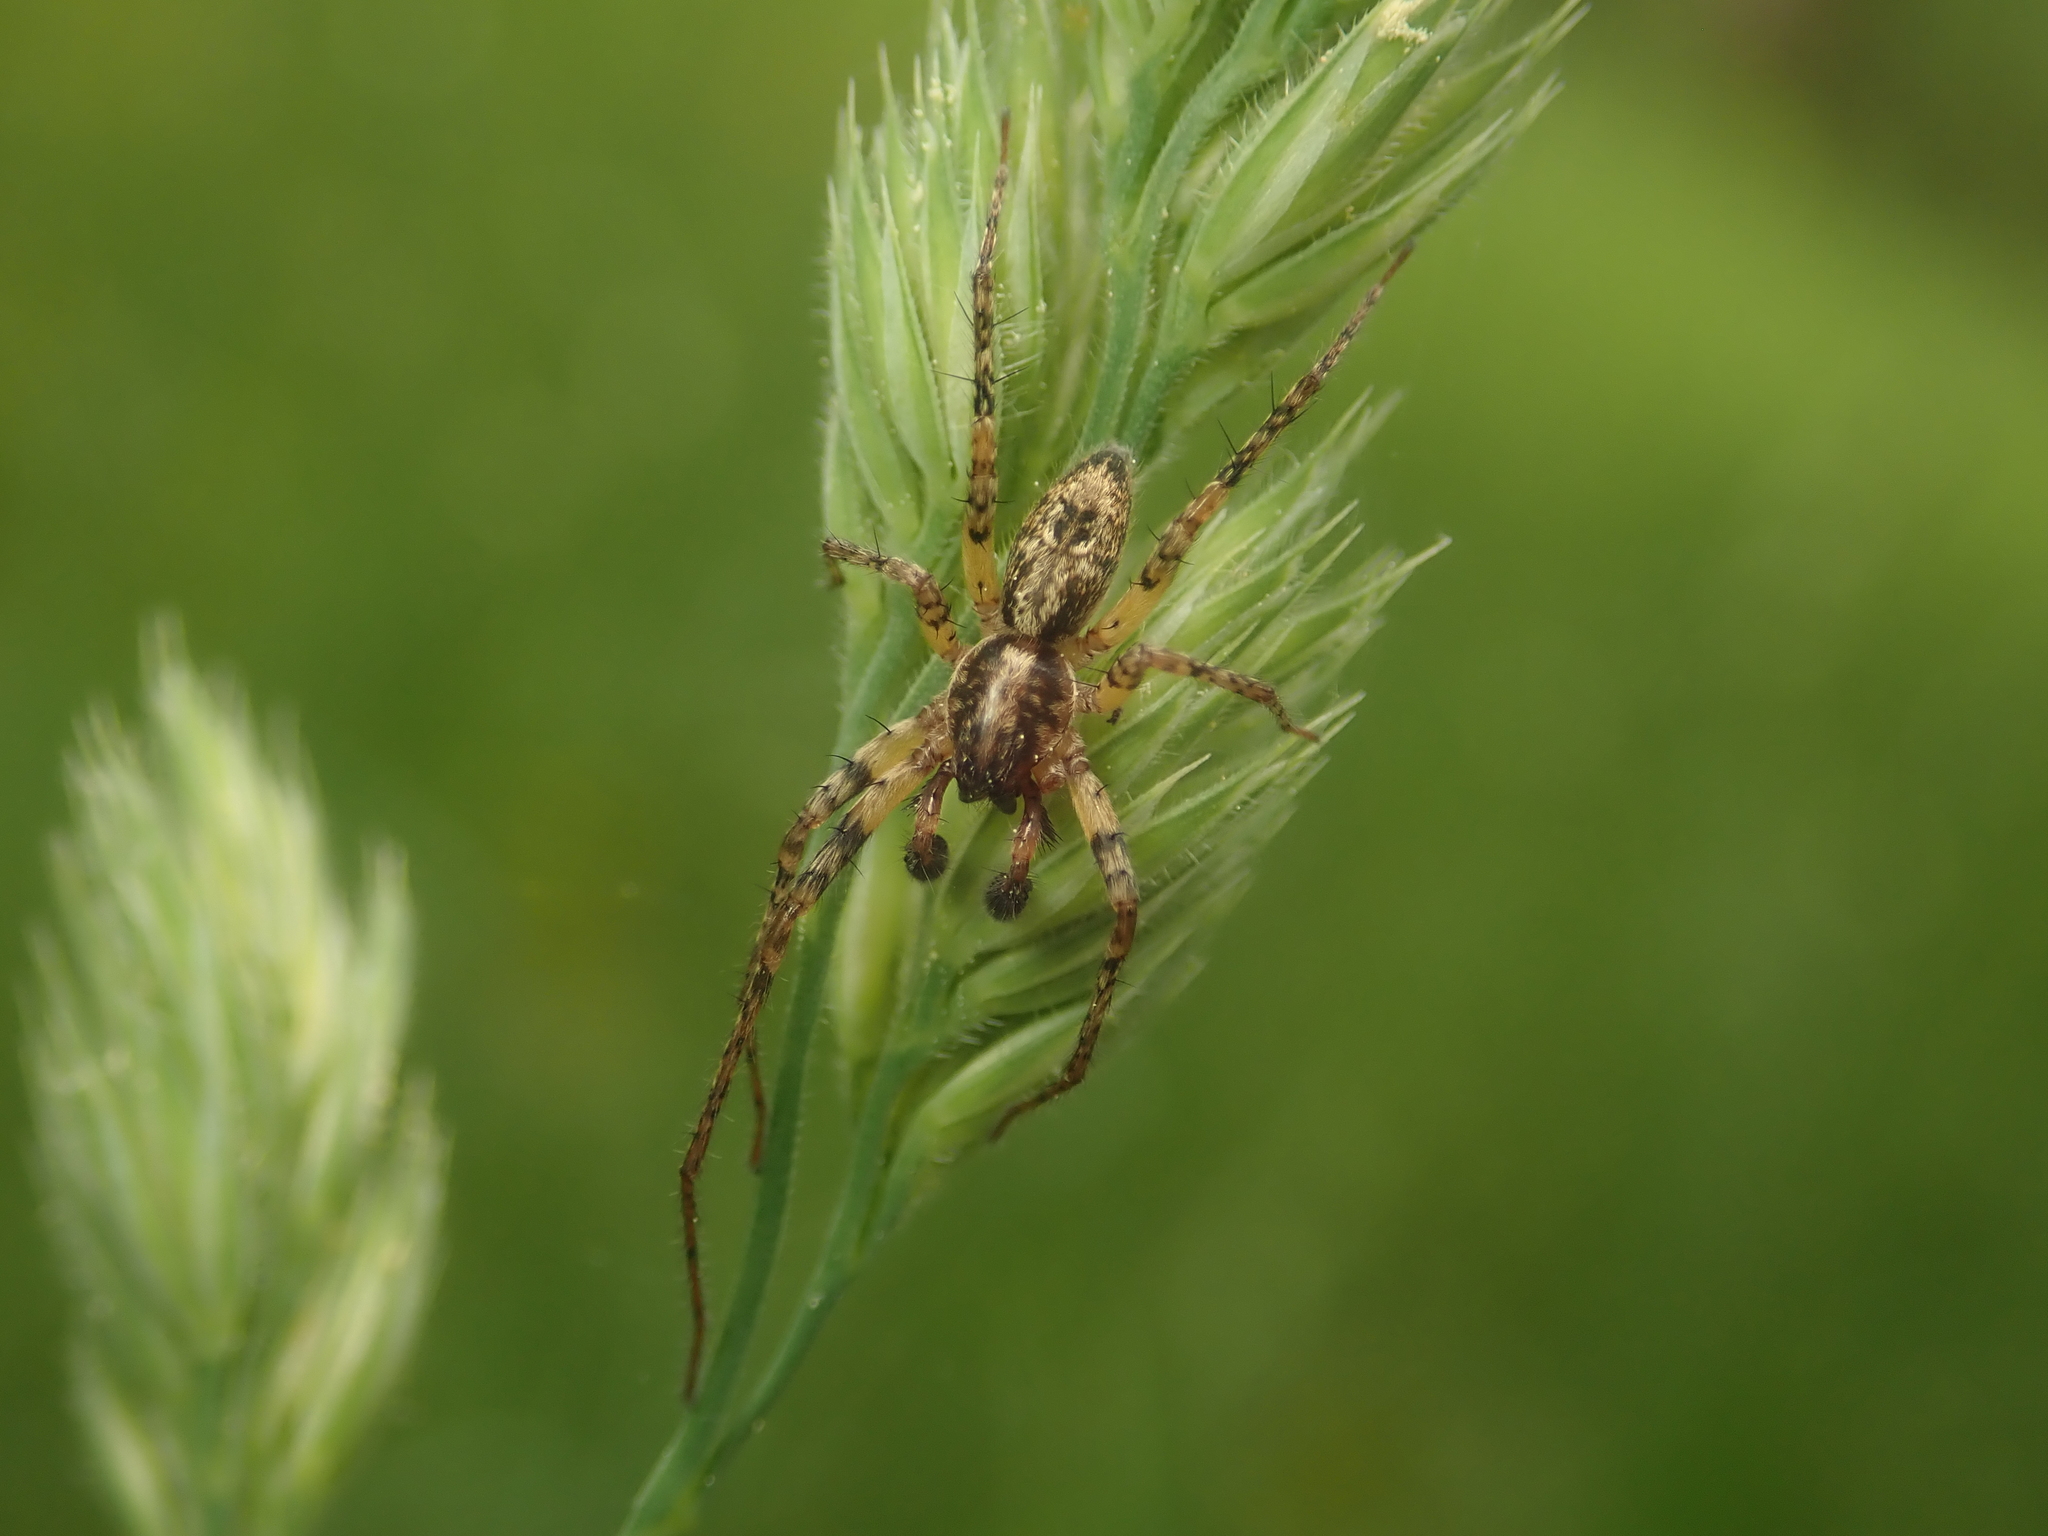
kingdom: Animalia
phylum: Arthropoda
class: Arachnida
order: Araneae
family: Anyphaenidae
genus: Anyphaena
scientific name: Anyphaena accentuata
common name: Buzzing spider
